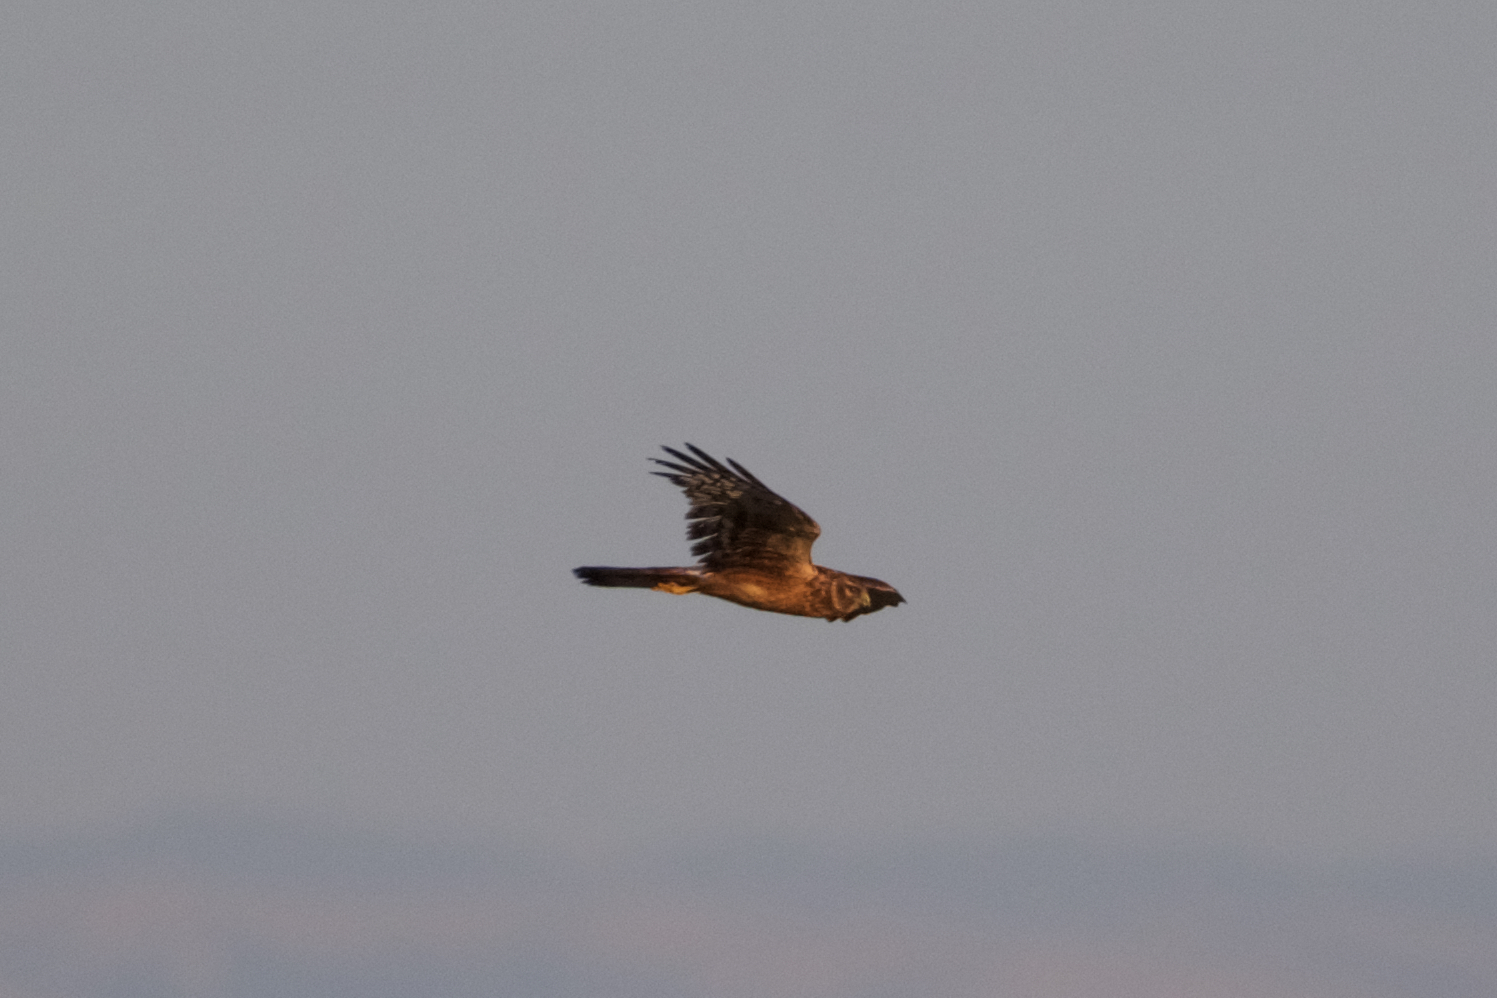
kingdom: Animalia
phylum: Chordata
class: Aves
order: Accipitriformes
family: Accipitridae
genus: Circus
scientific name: Circus cyaneus
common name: Hen harrier
